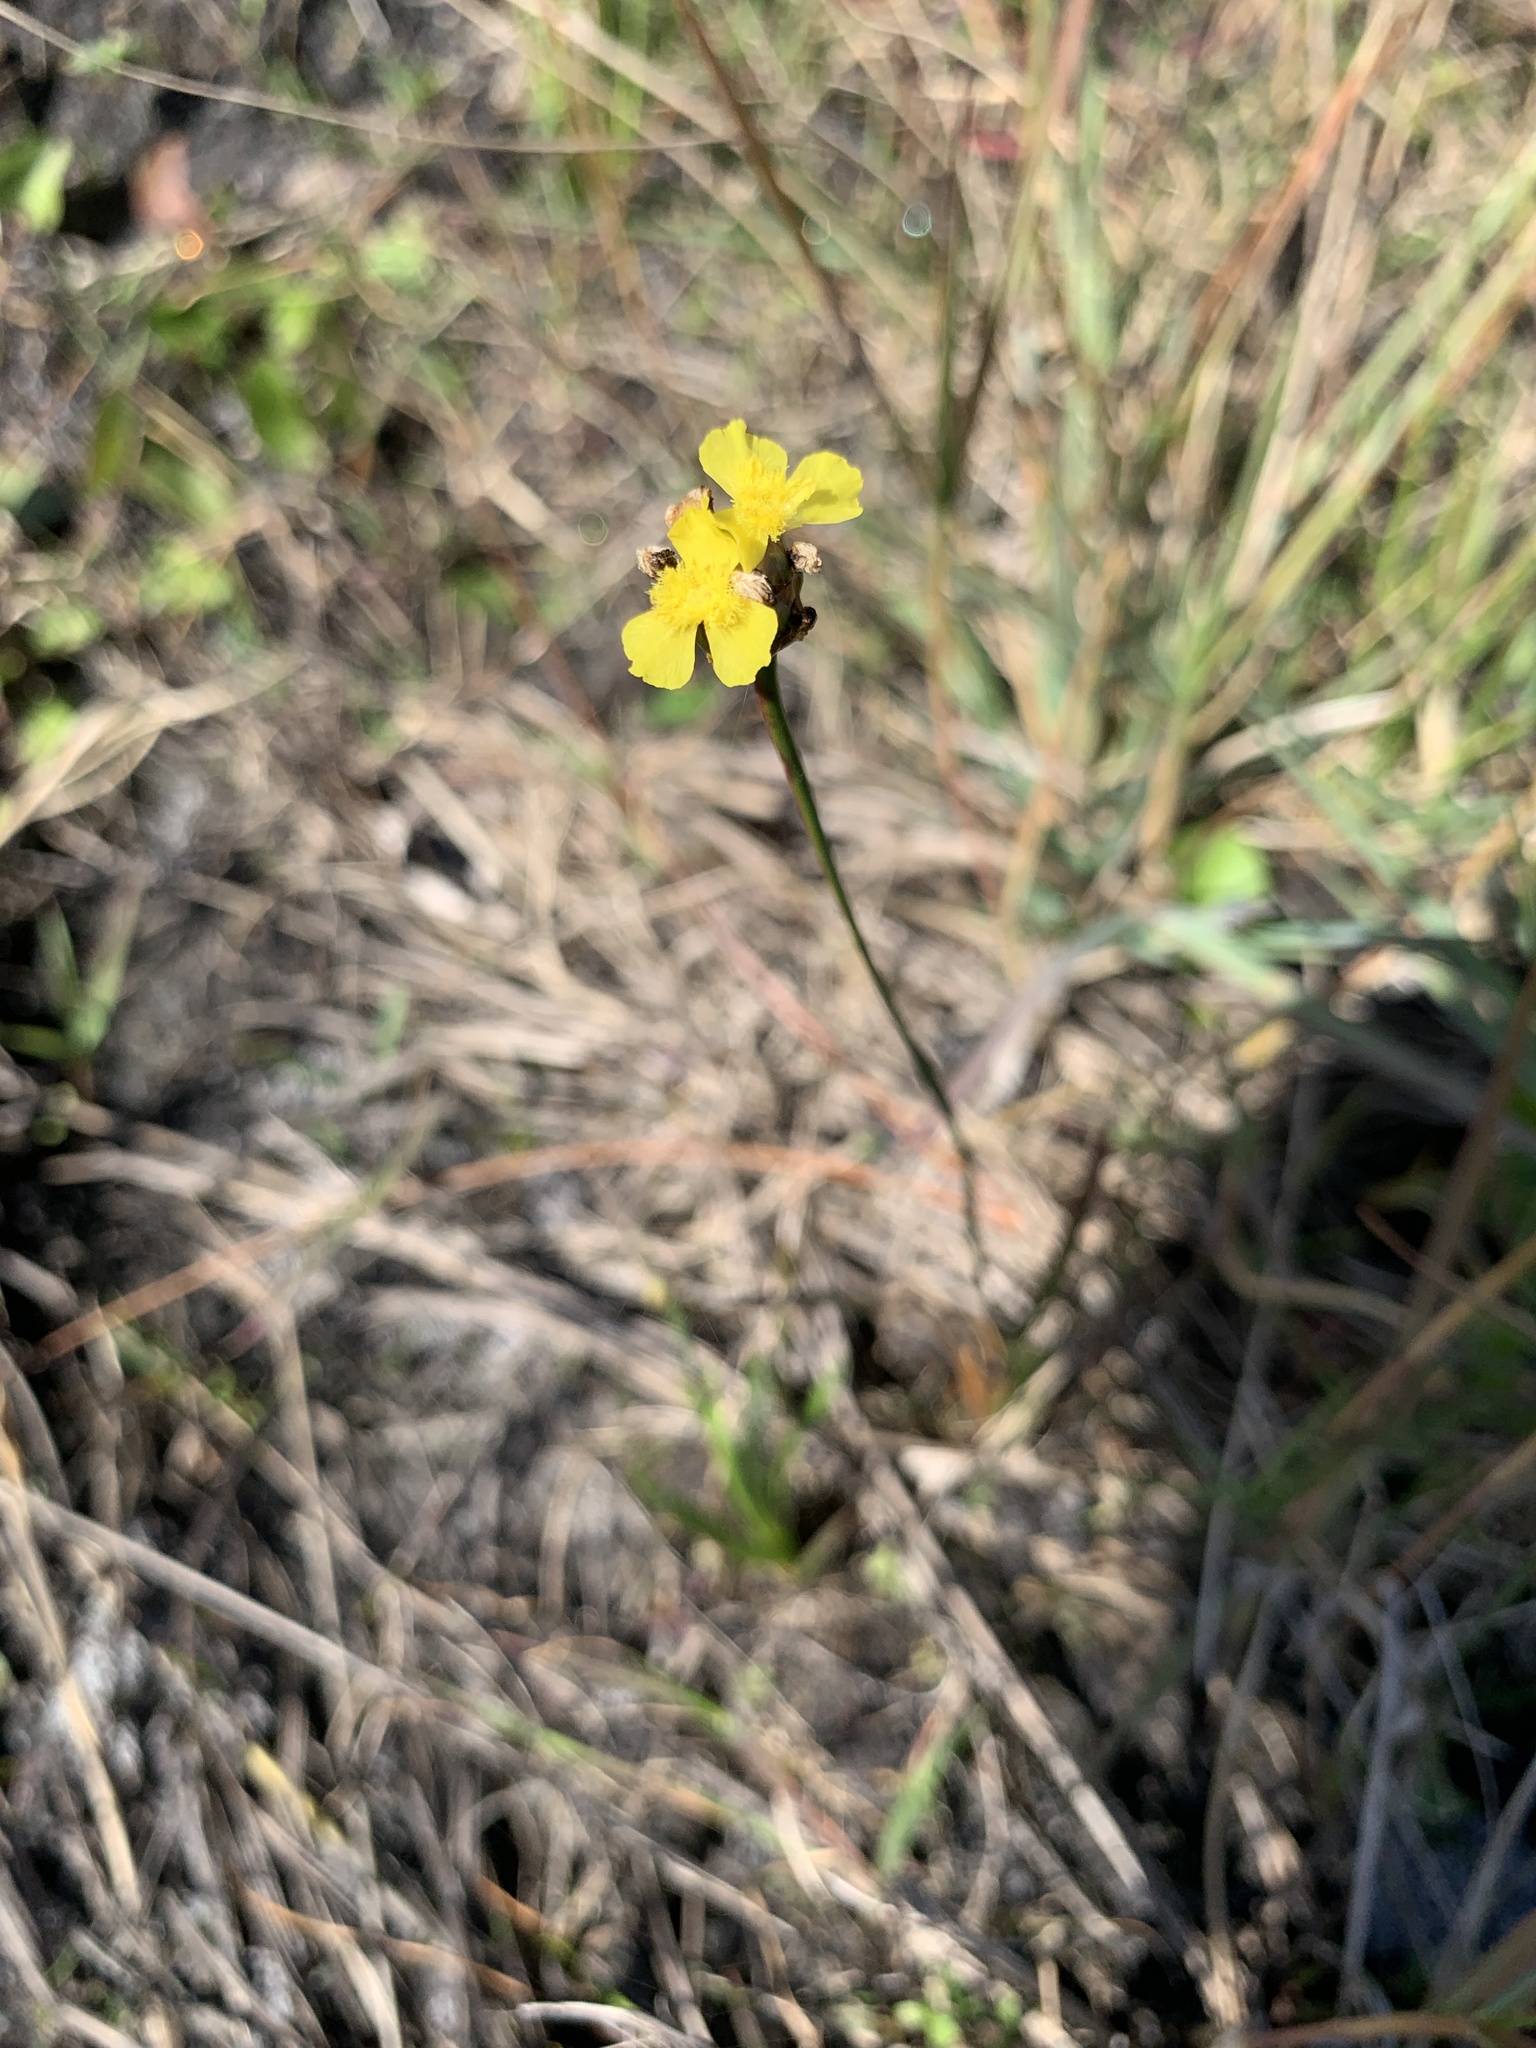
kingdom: Plantae
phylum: Tracheophyta
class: Liliopsida
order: Poales
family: Xyridaceae
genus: Xyris
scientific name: Xyris jupicai
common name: Richard's yelloweyed grass
